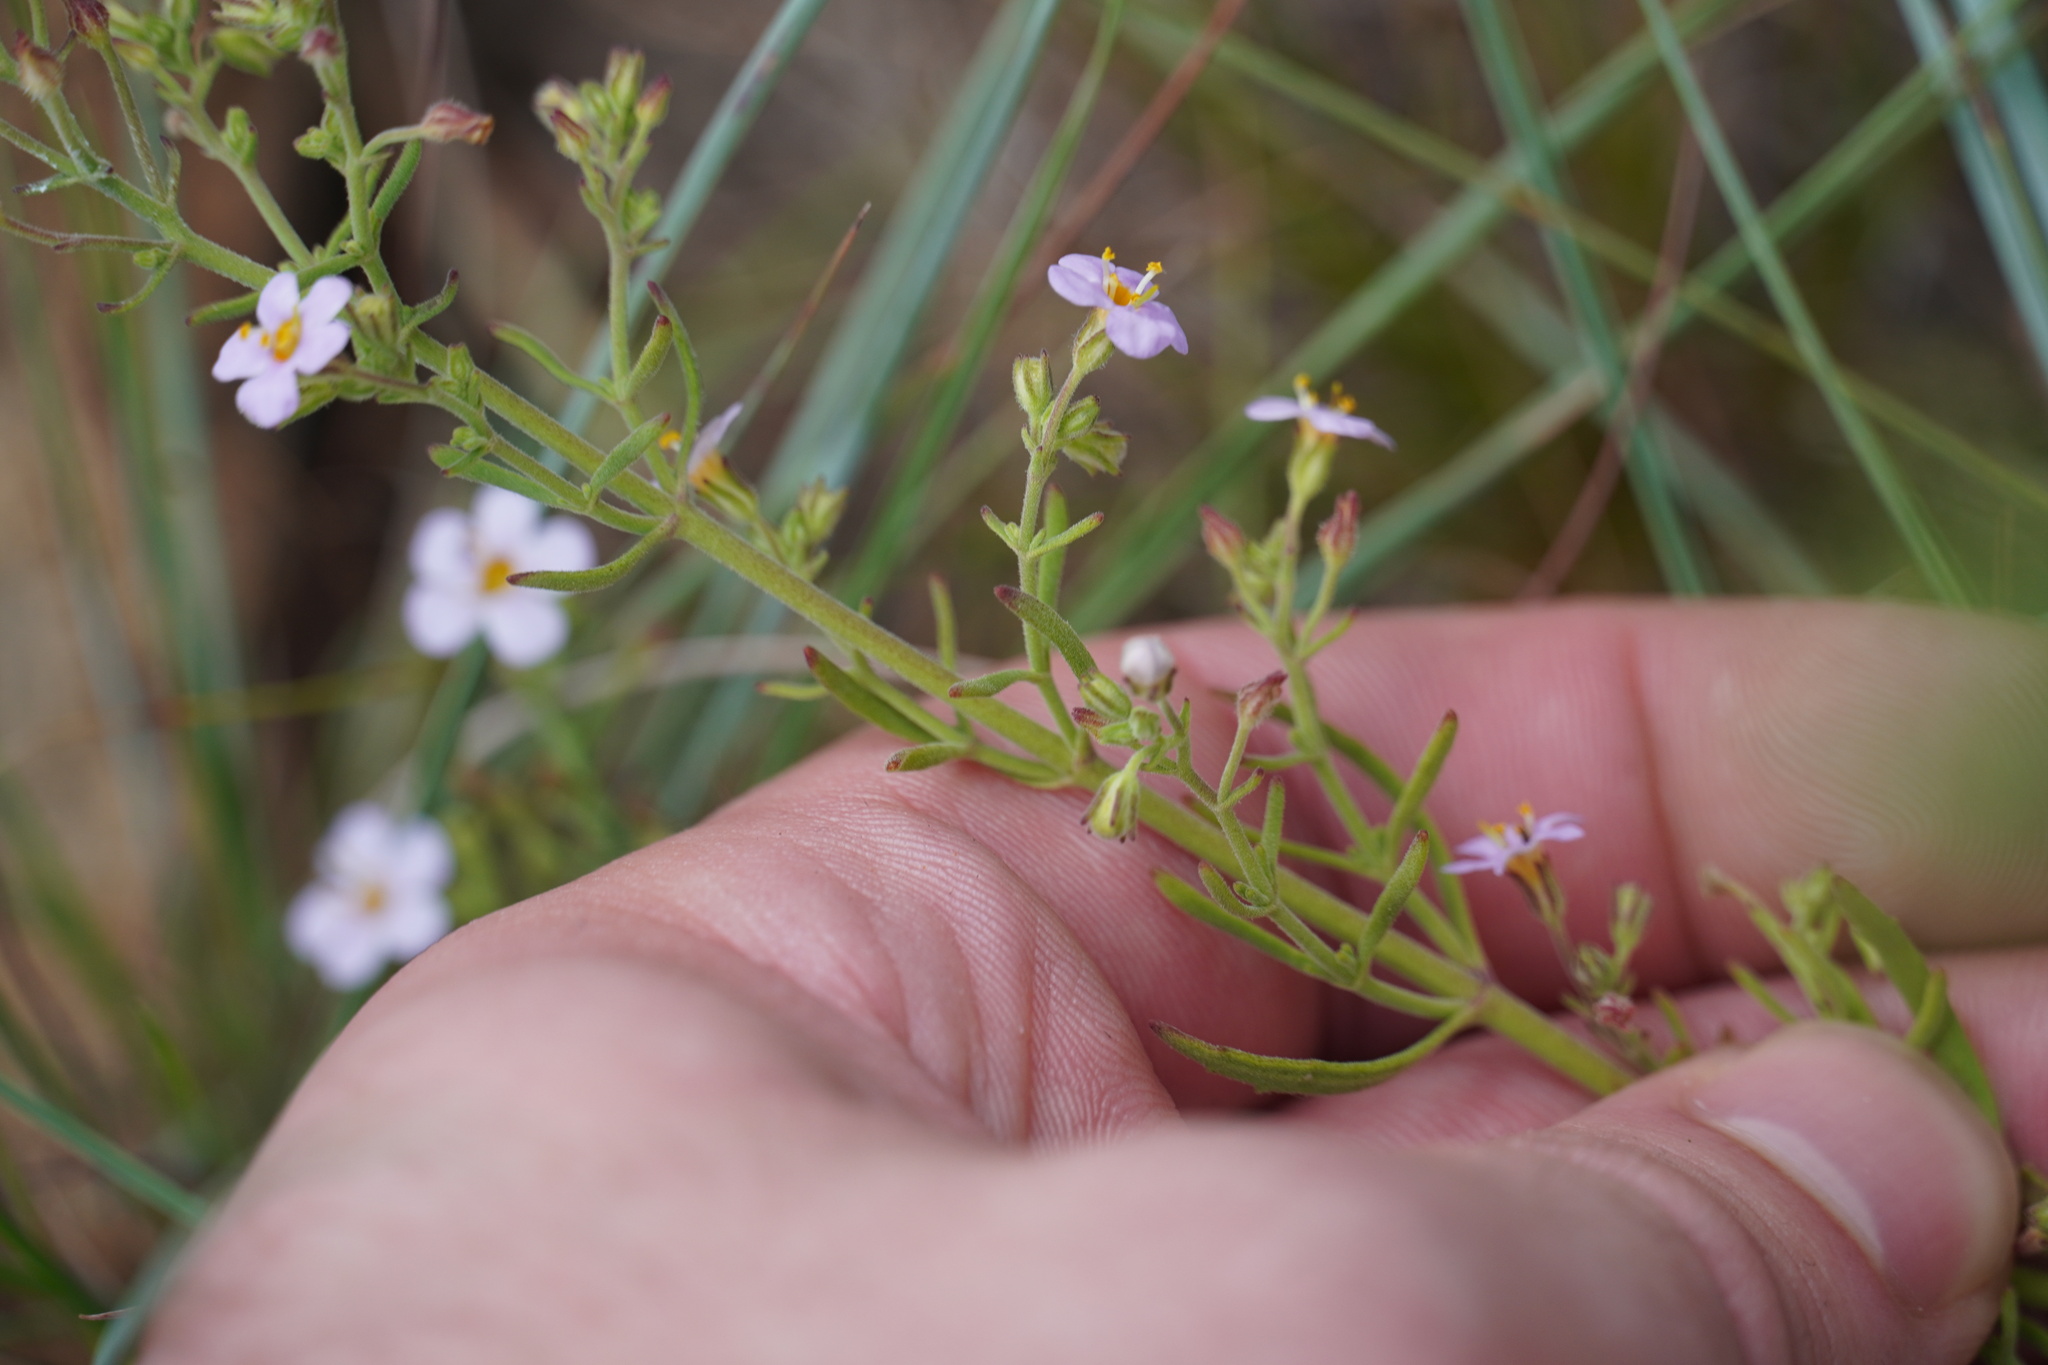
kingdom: Plantae
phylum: Tracheophyta
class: Magnoliopsida
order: Lamiales
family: Scrophulariaceae
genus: Chaenostoma
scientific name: Chaenostoma leve
